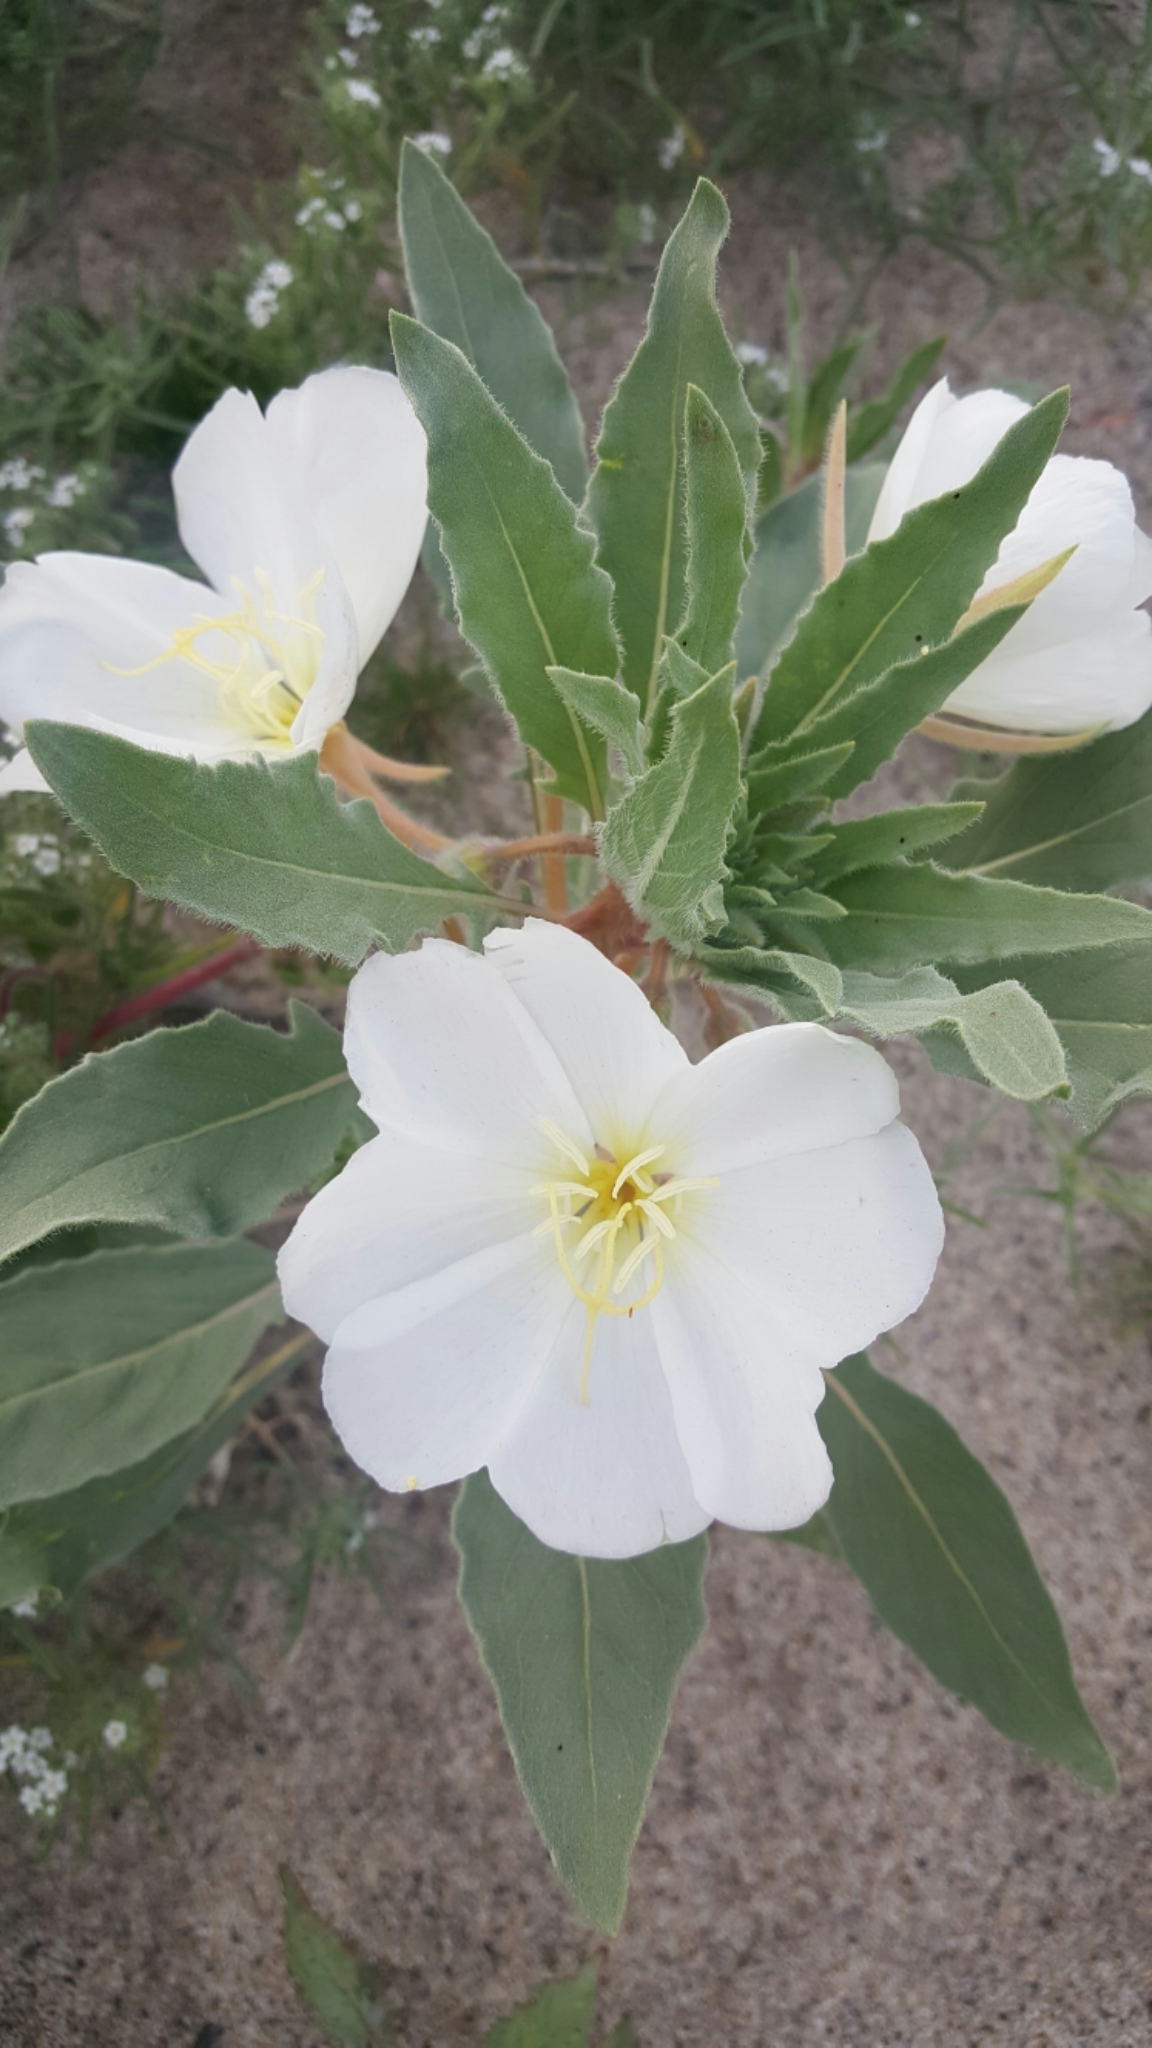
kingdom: Plantae
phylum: Tracheophyta
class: Magnoliopsida
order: Myrtales
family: Onagraceae
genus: Oenothera
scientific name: Oenothera deltoides
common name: Basket evening-primrose
